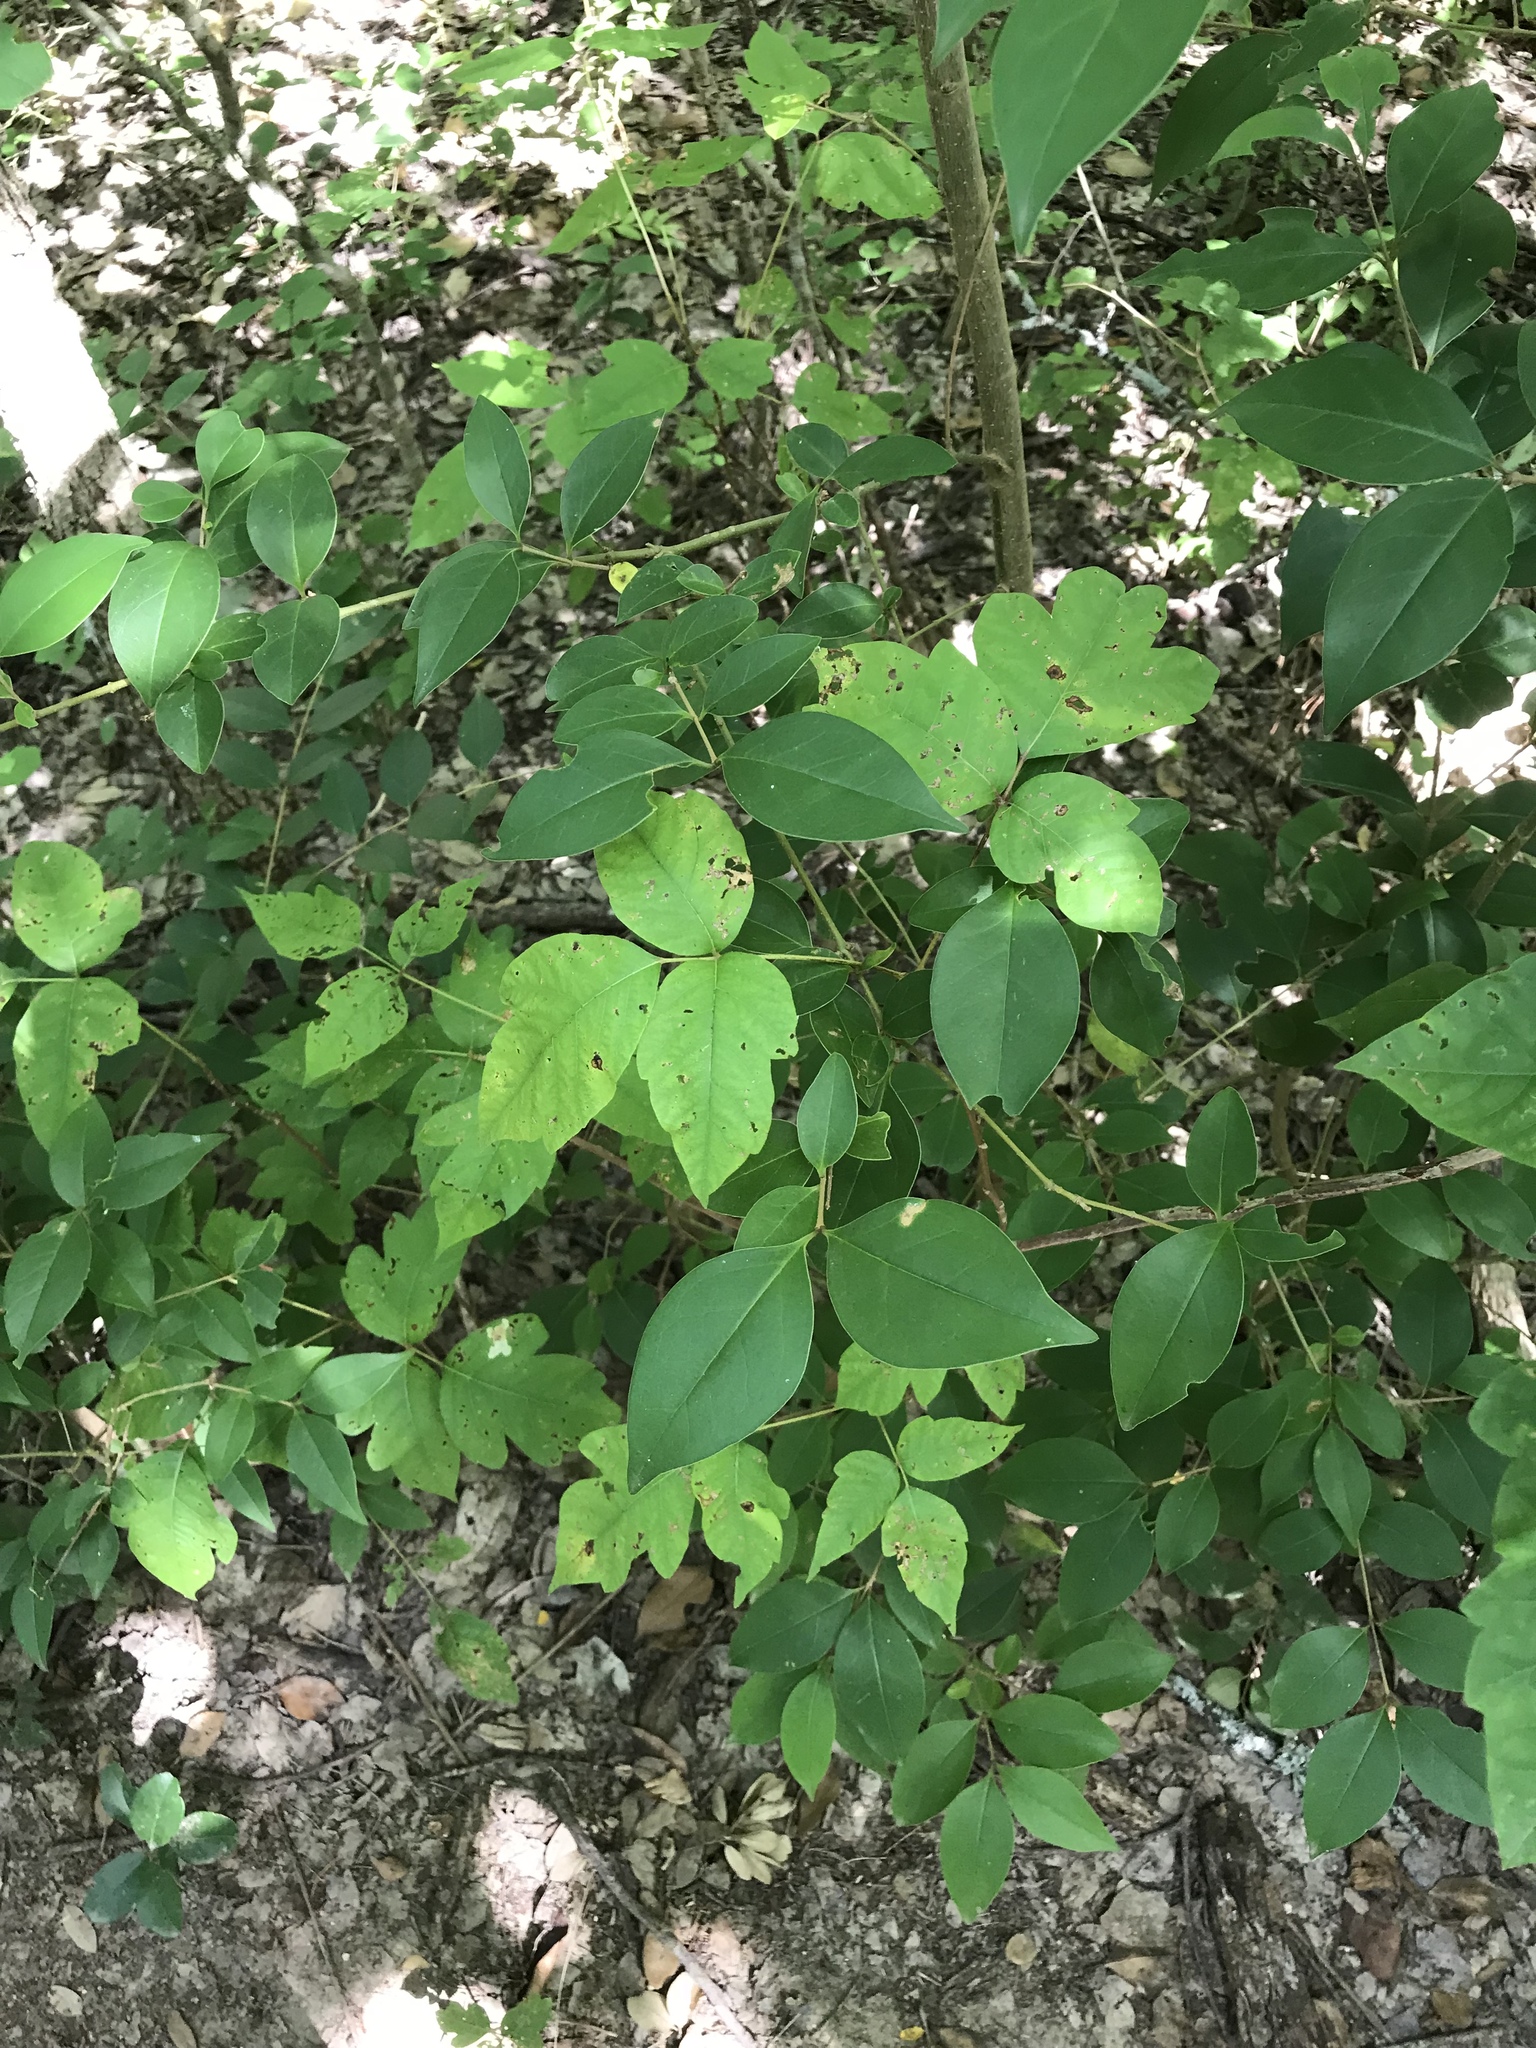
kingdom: Plantae
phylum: Tracheophyta
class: Magnoliopsida
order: Sapindales
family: Anacardiaceae
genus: Toxicodendron
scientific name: Toxicodendron radicans
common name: Poison ivy
